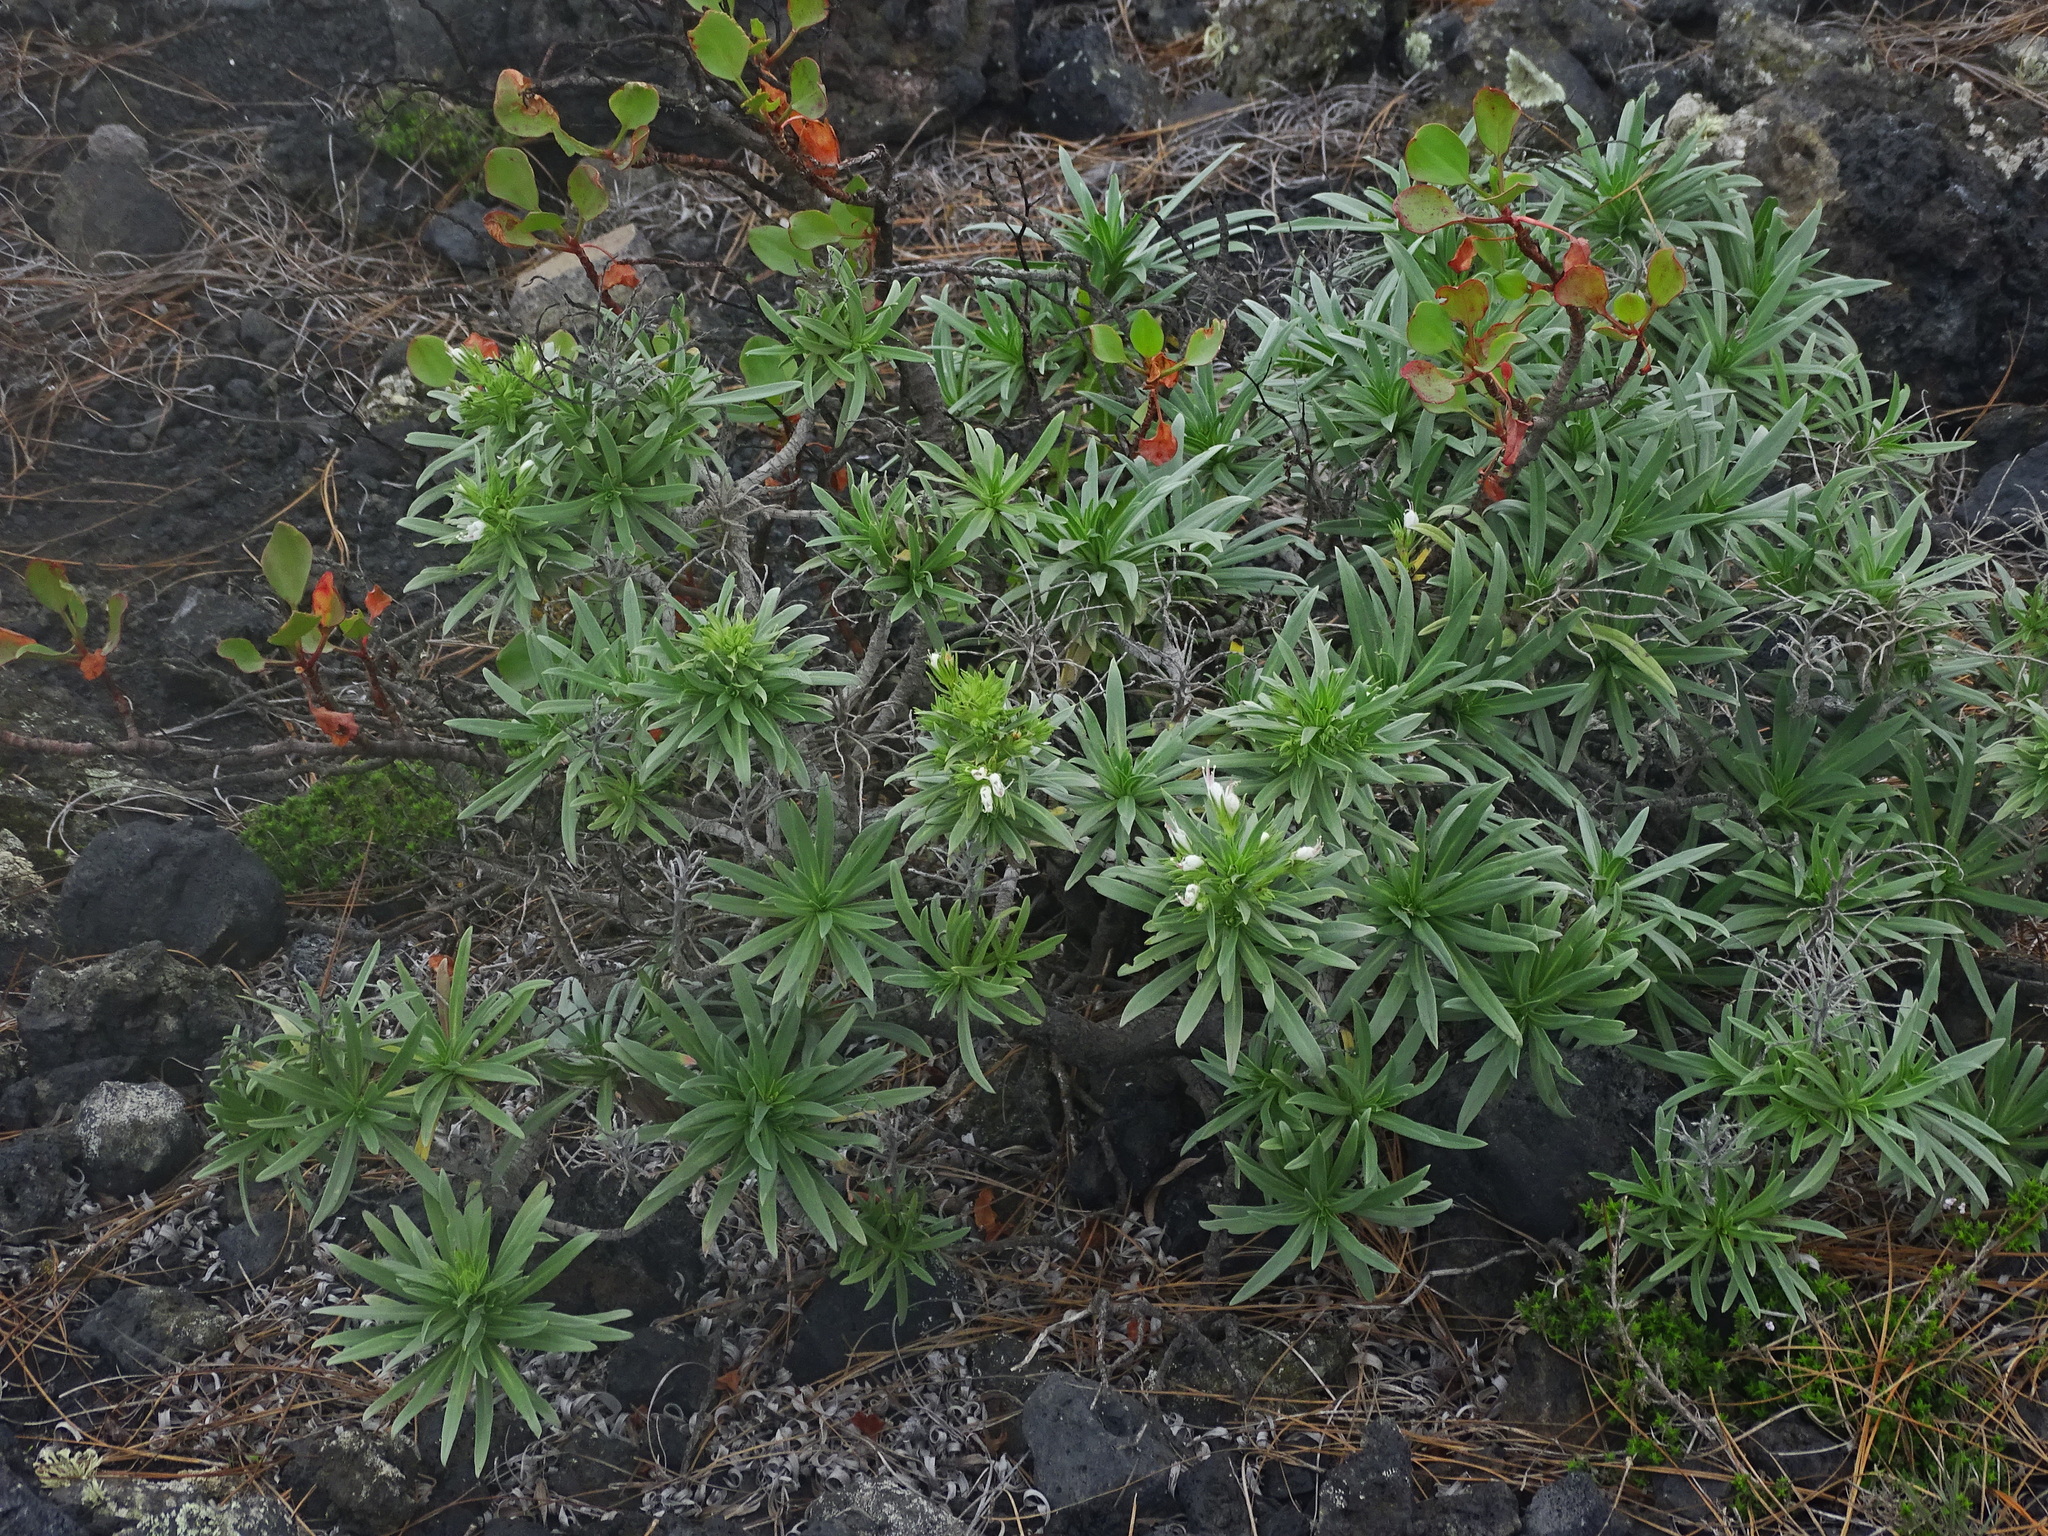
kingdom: Plantae
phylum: Tracheophyta
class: Magnoliopsida
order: Boraginales
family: Boraginaceae
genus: Echium
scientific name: Echium brevirame
